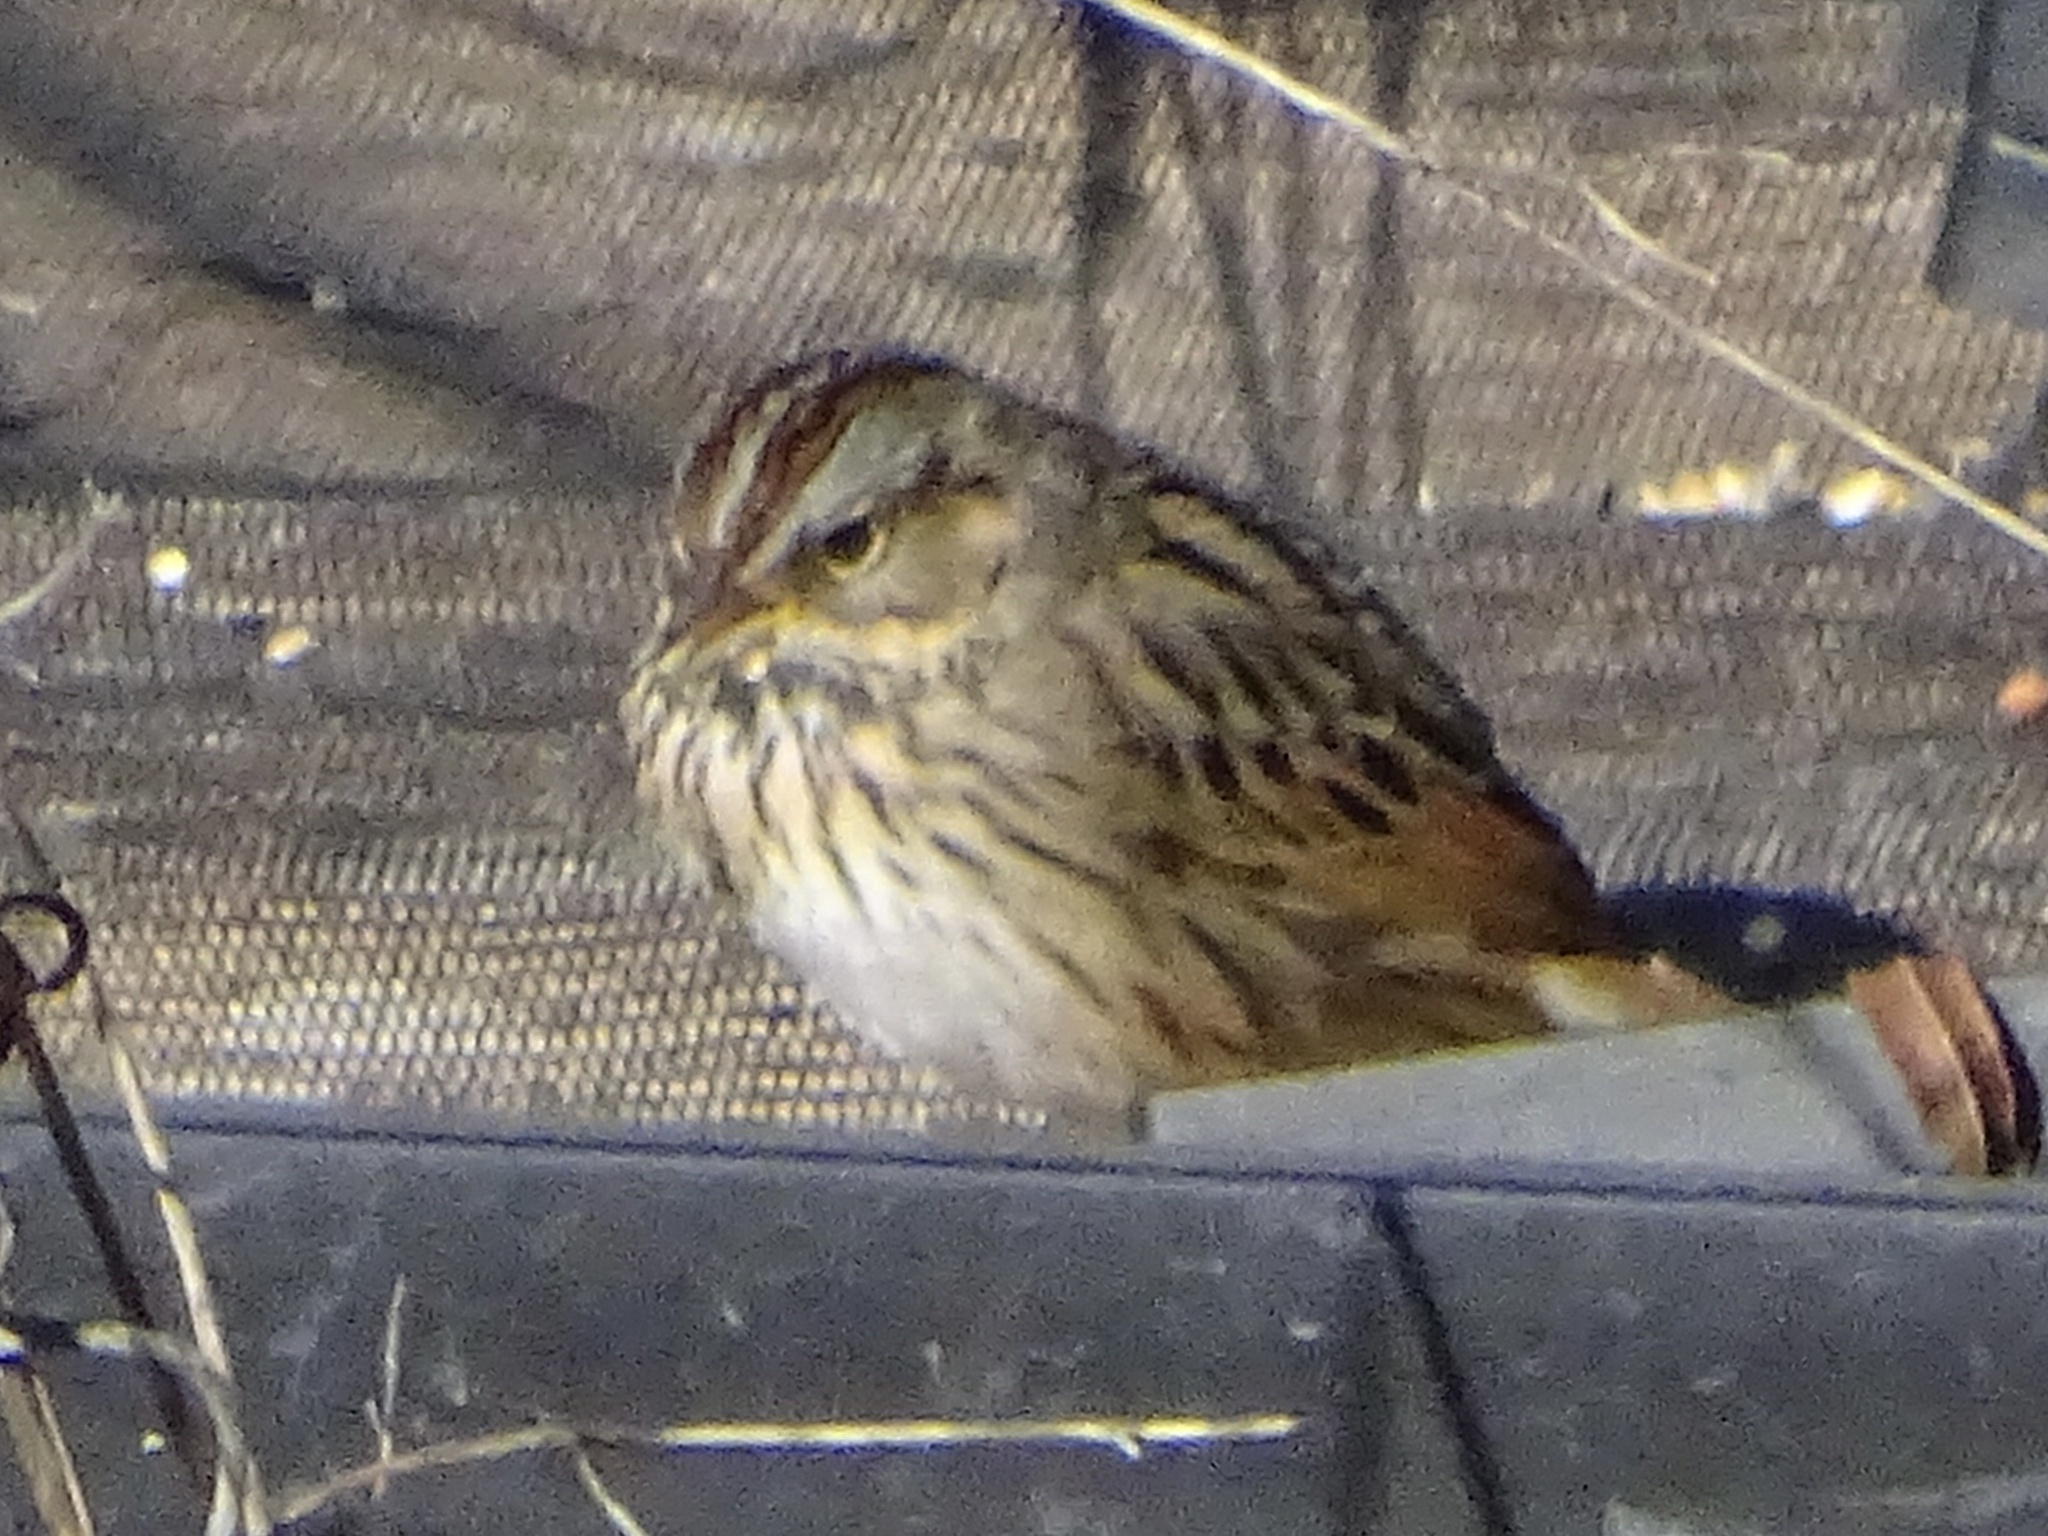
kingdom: Animalia
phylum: Chordata
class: Aves
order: Passeriformes
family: Passerellidae
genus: Melospiza
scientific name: Melospiza lincolnii
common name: Lincoln's sparrow
